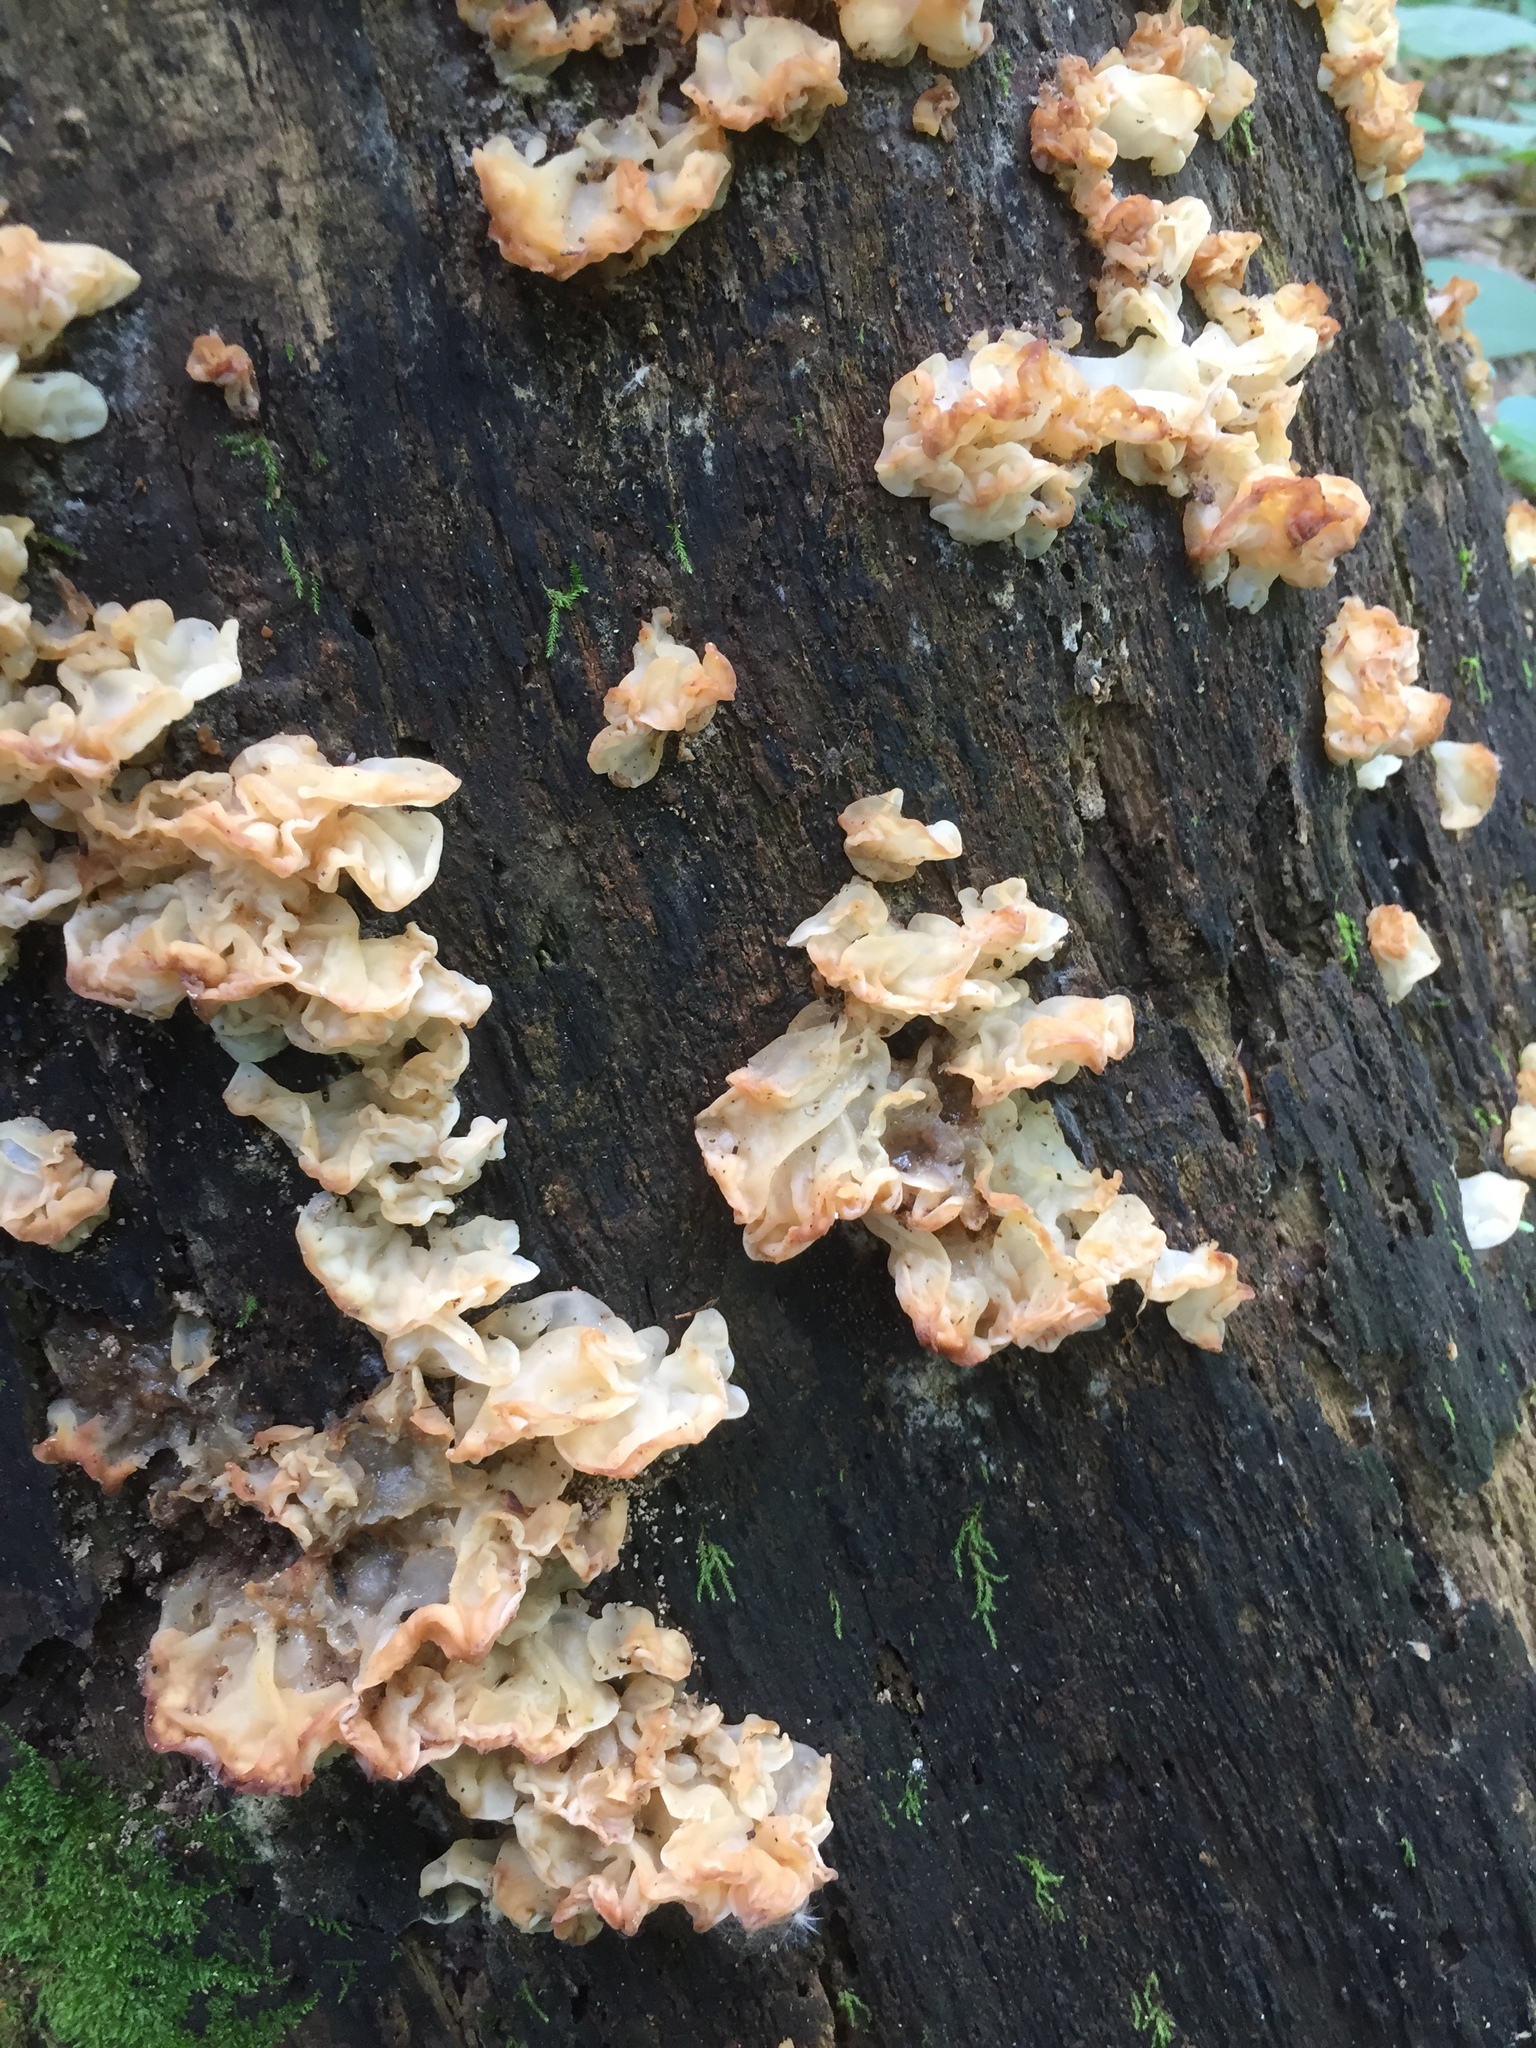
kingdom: Fungi
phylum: Basidiomycota
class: Agaricomycetes
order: Auriculariales
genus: Ductifera
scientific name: Ductifera pululahuana
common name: White jelly fungus
